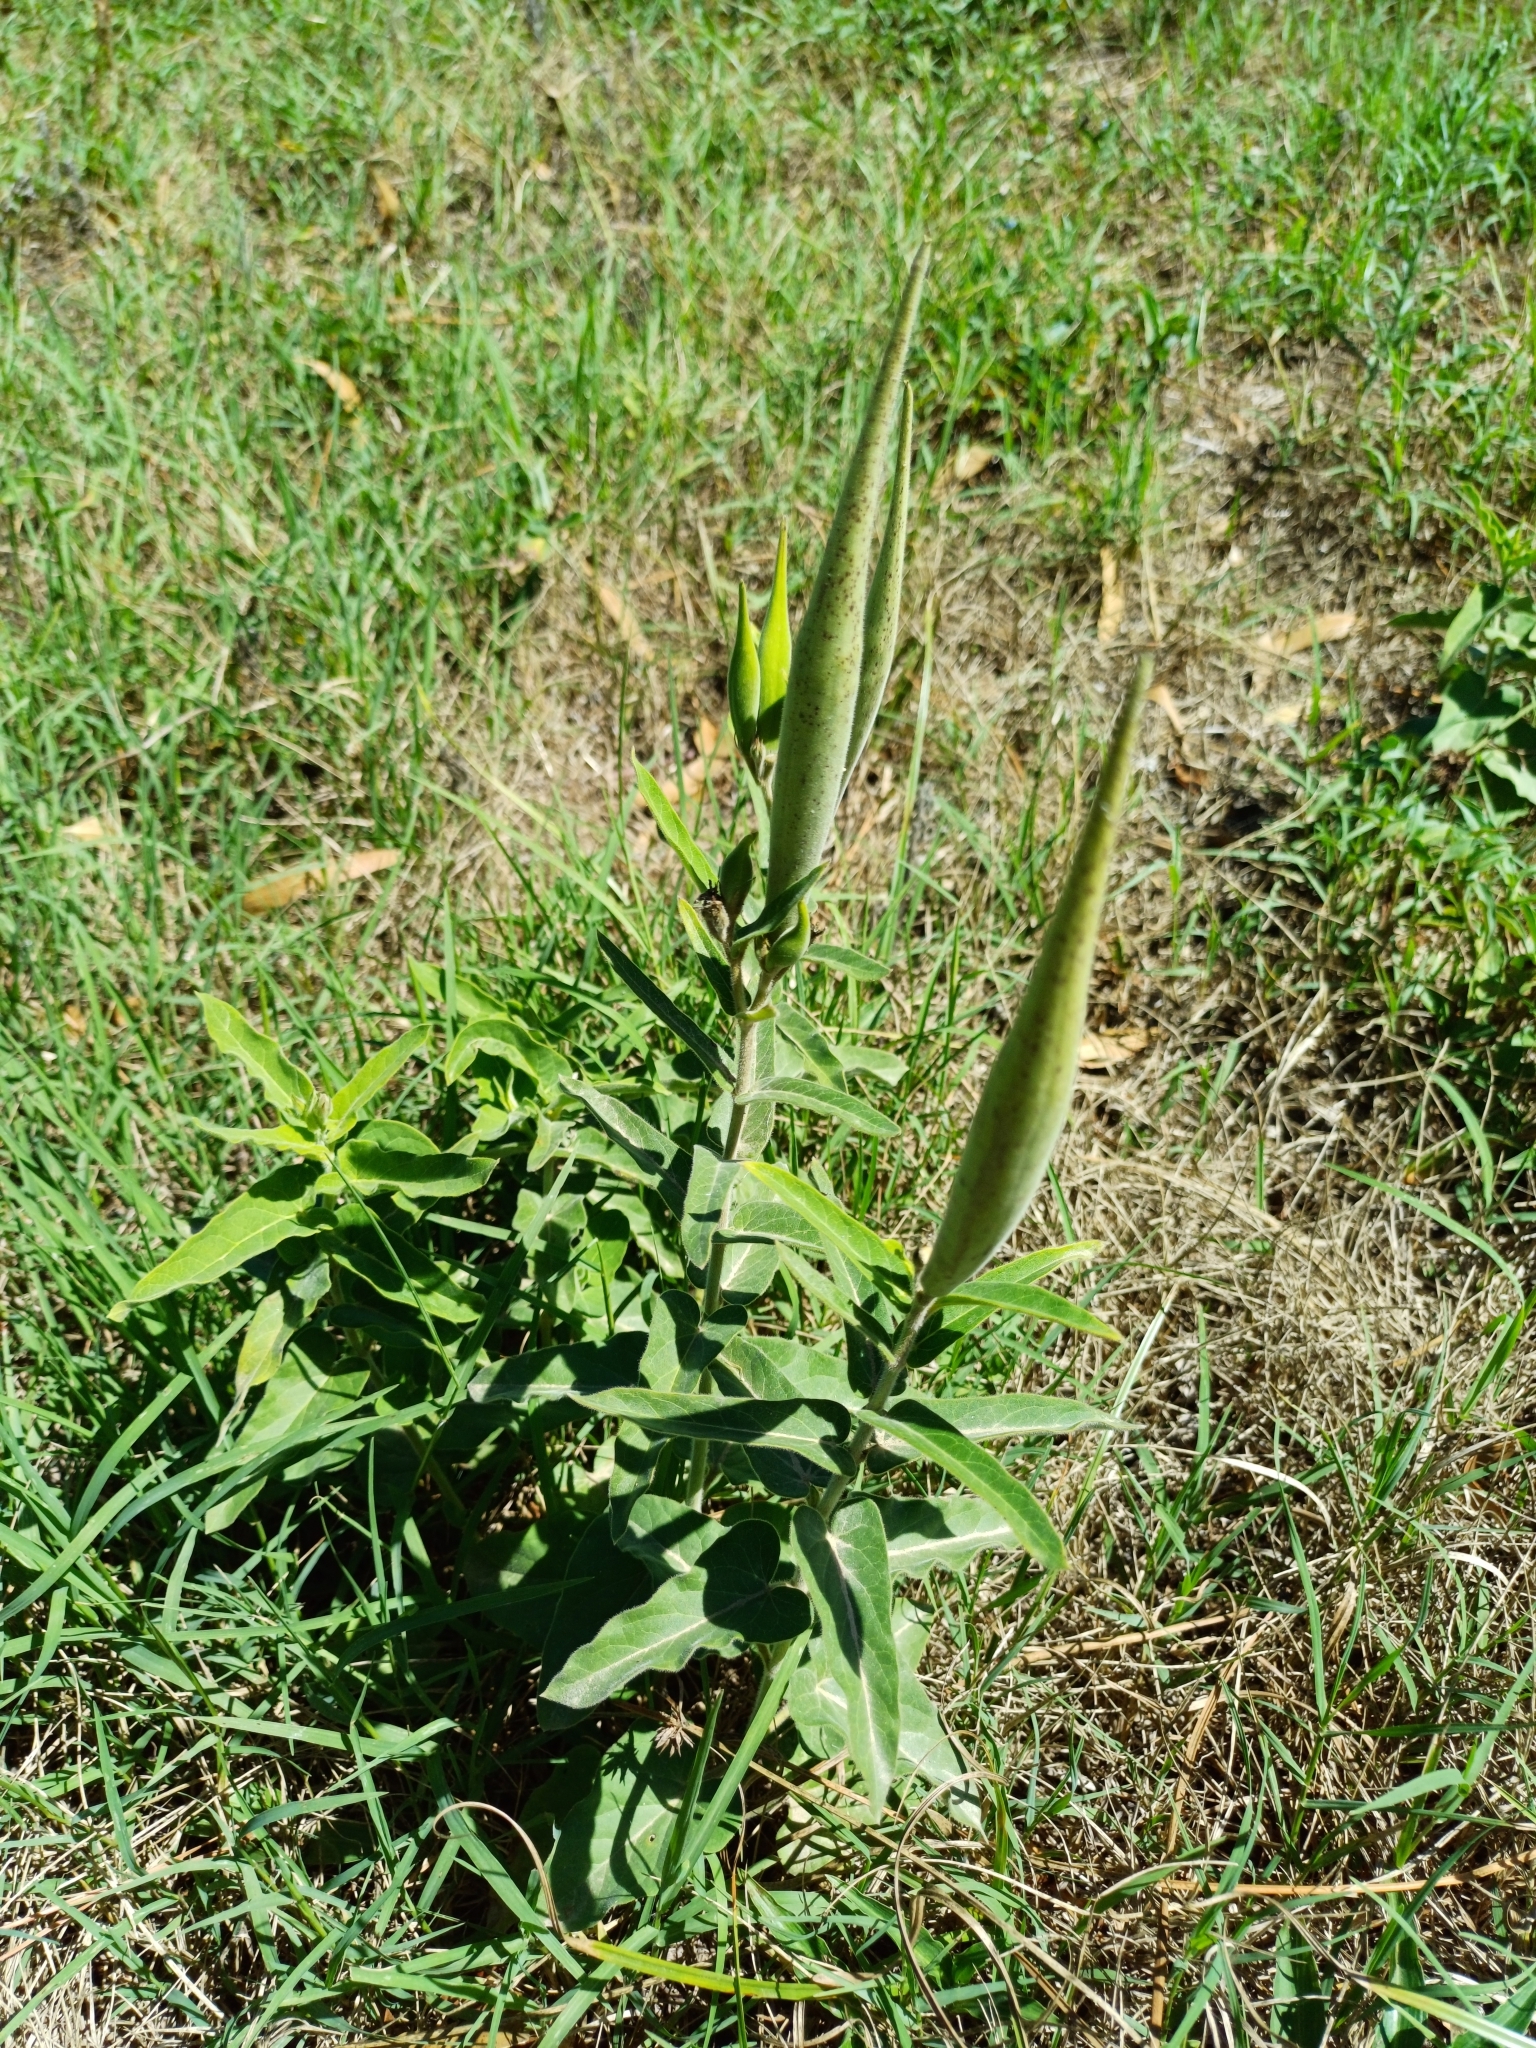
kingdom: Plantae
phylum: Tracheophyta
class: Magnoliopsida
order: Gentianales
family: Apocynaceae
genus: Oxypetalum
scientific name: Oxypetalum solanoides
